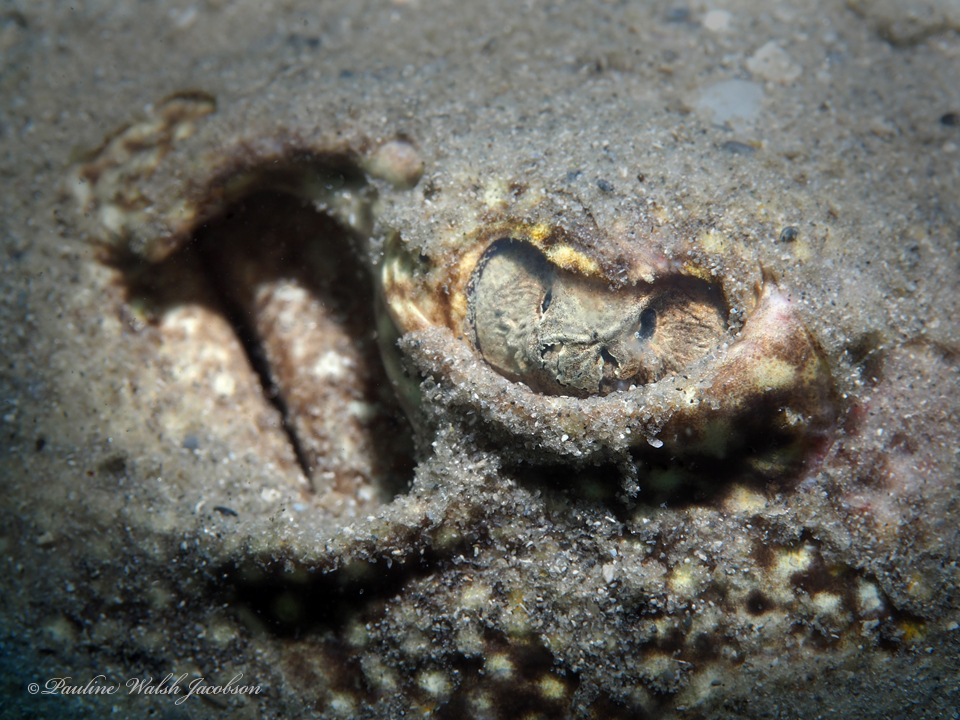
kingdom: Animalia
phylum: Chordata
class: Elasmobranchii
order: Myliobatiformes
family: Urotrygonidae
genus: Urobatis
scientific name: Urobatis jamaicensis
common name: Yellow stingray
